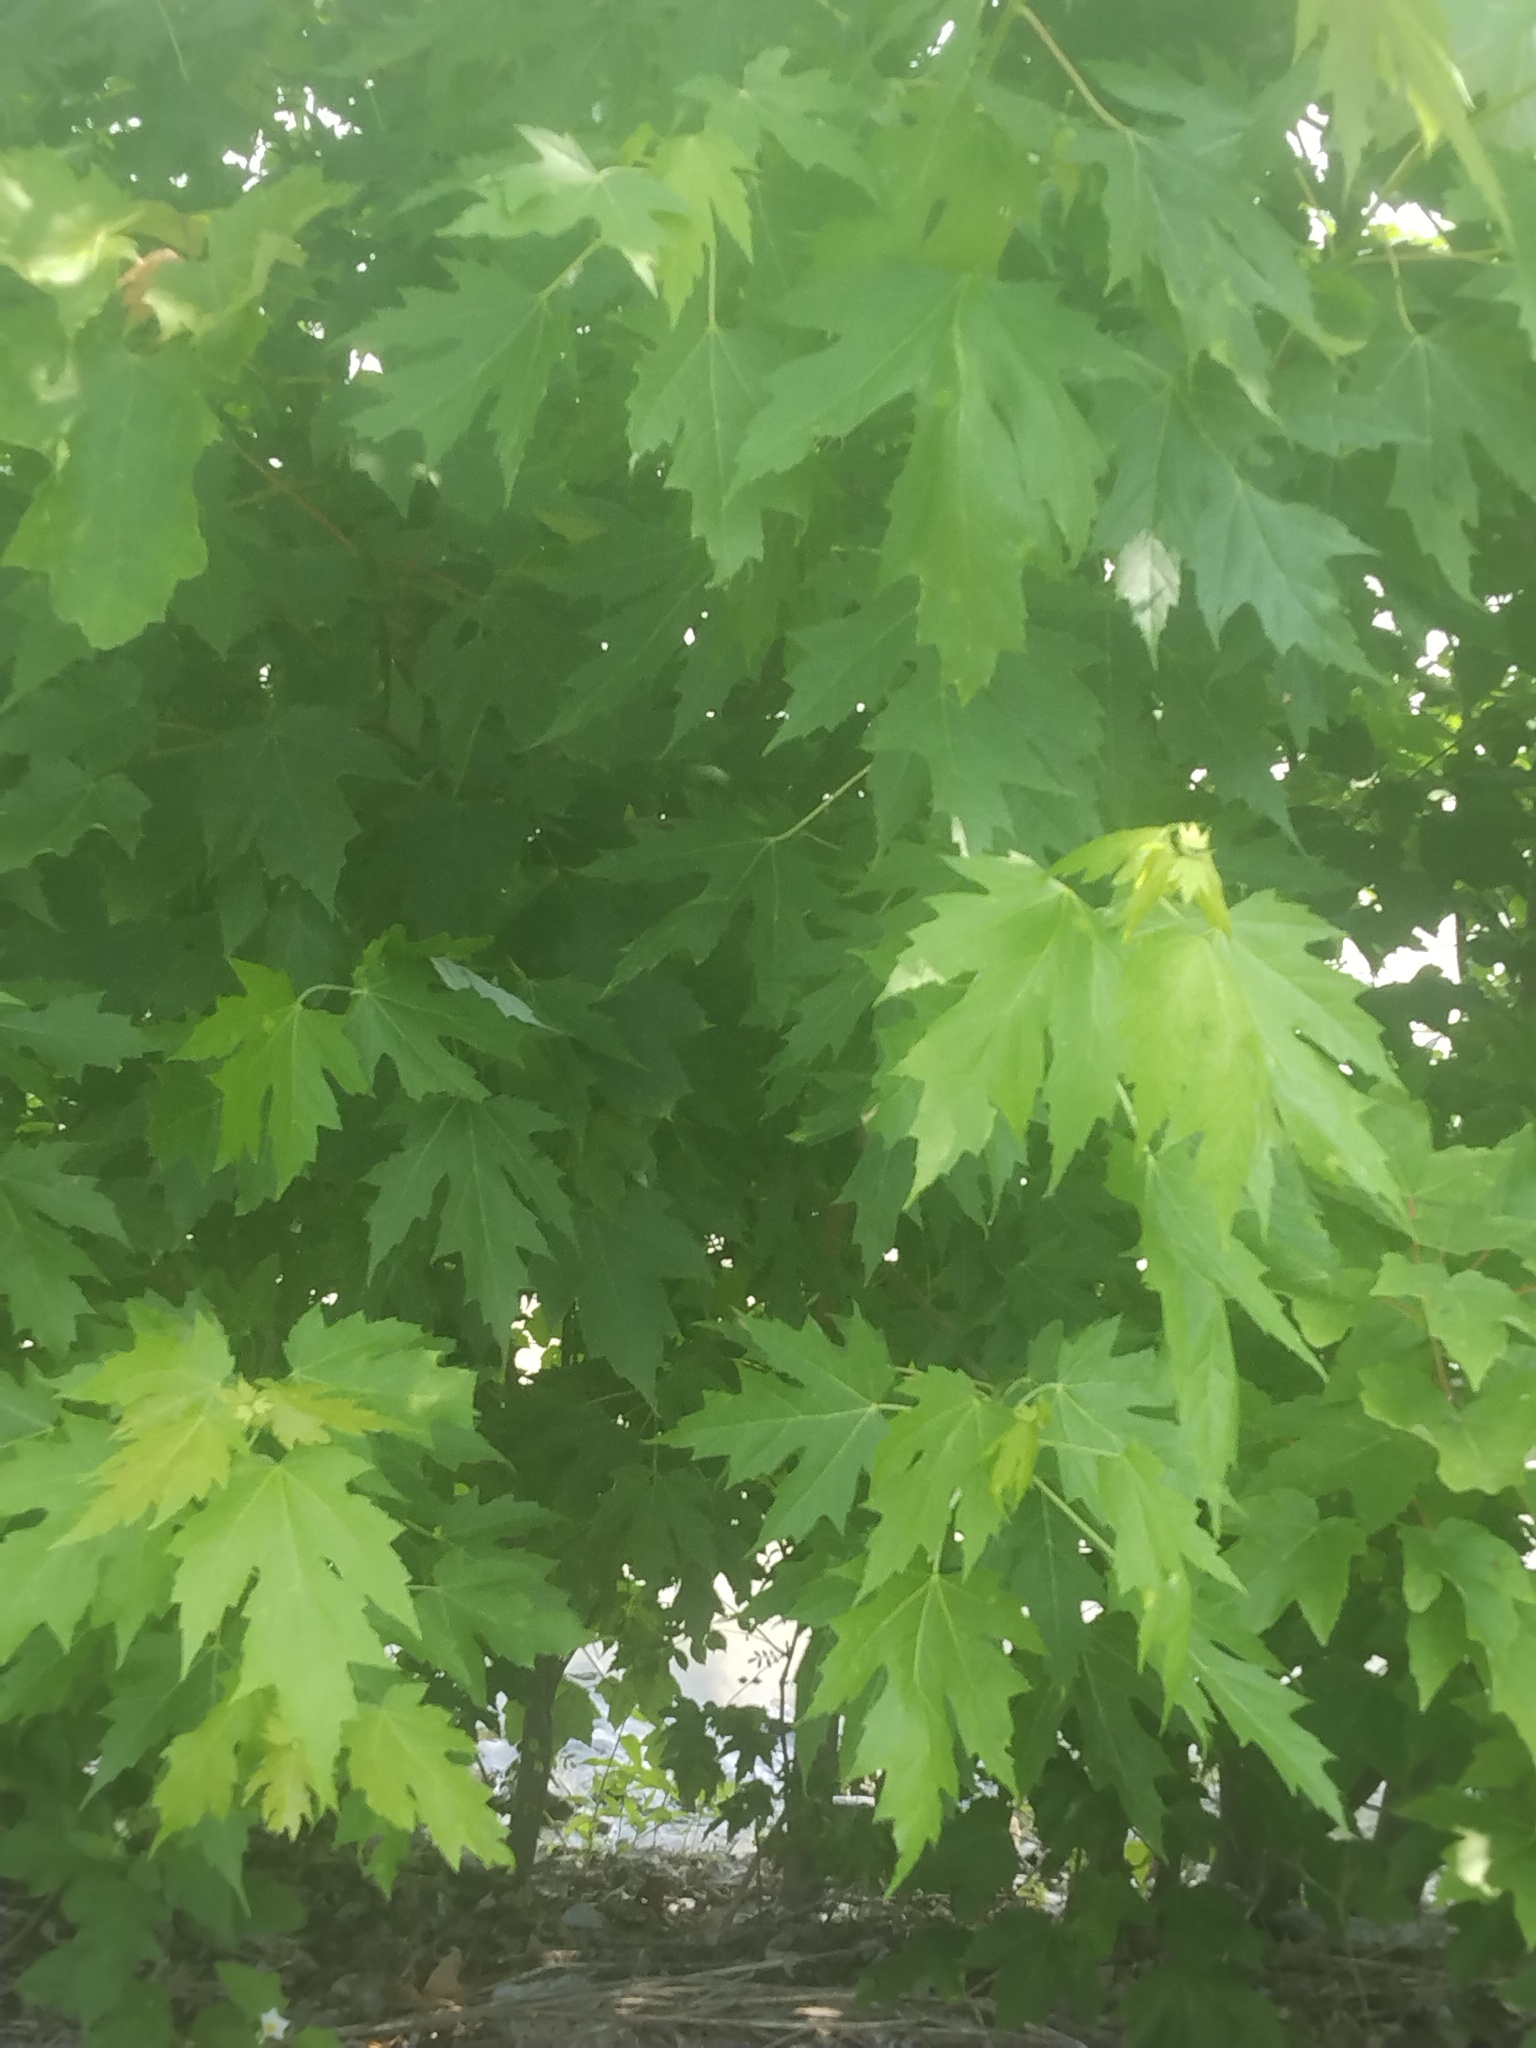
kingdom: Plantae
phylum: Tracheophyta
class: Magnoliopsida
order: Sapindales
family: Sapindaceae
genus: Acer
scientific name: Acer saccharinum
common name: Silver maple
